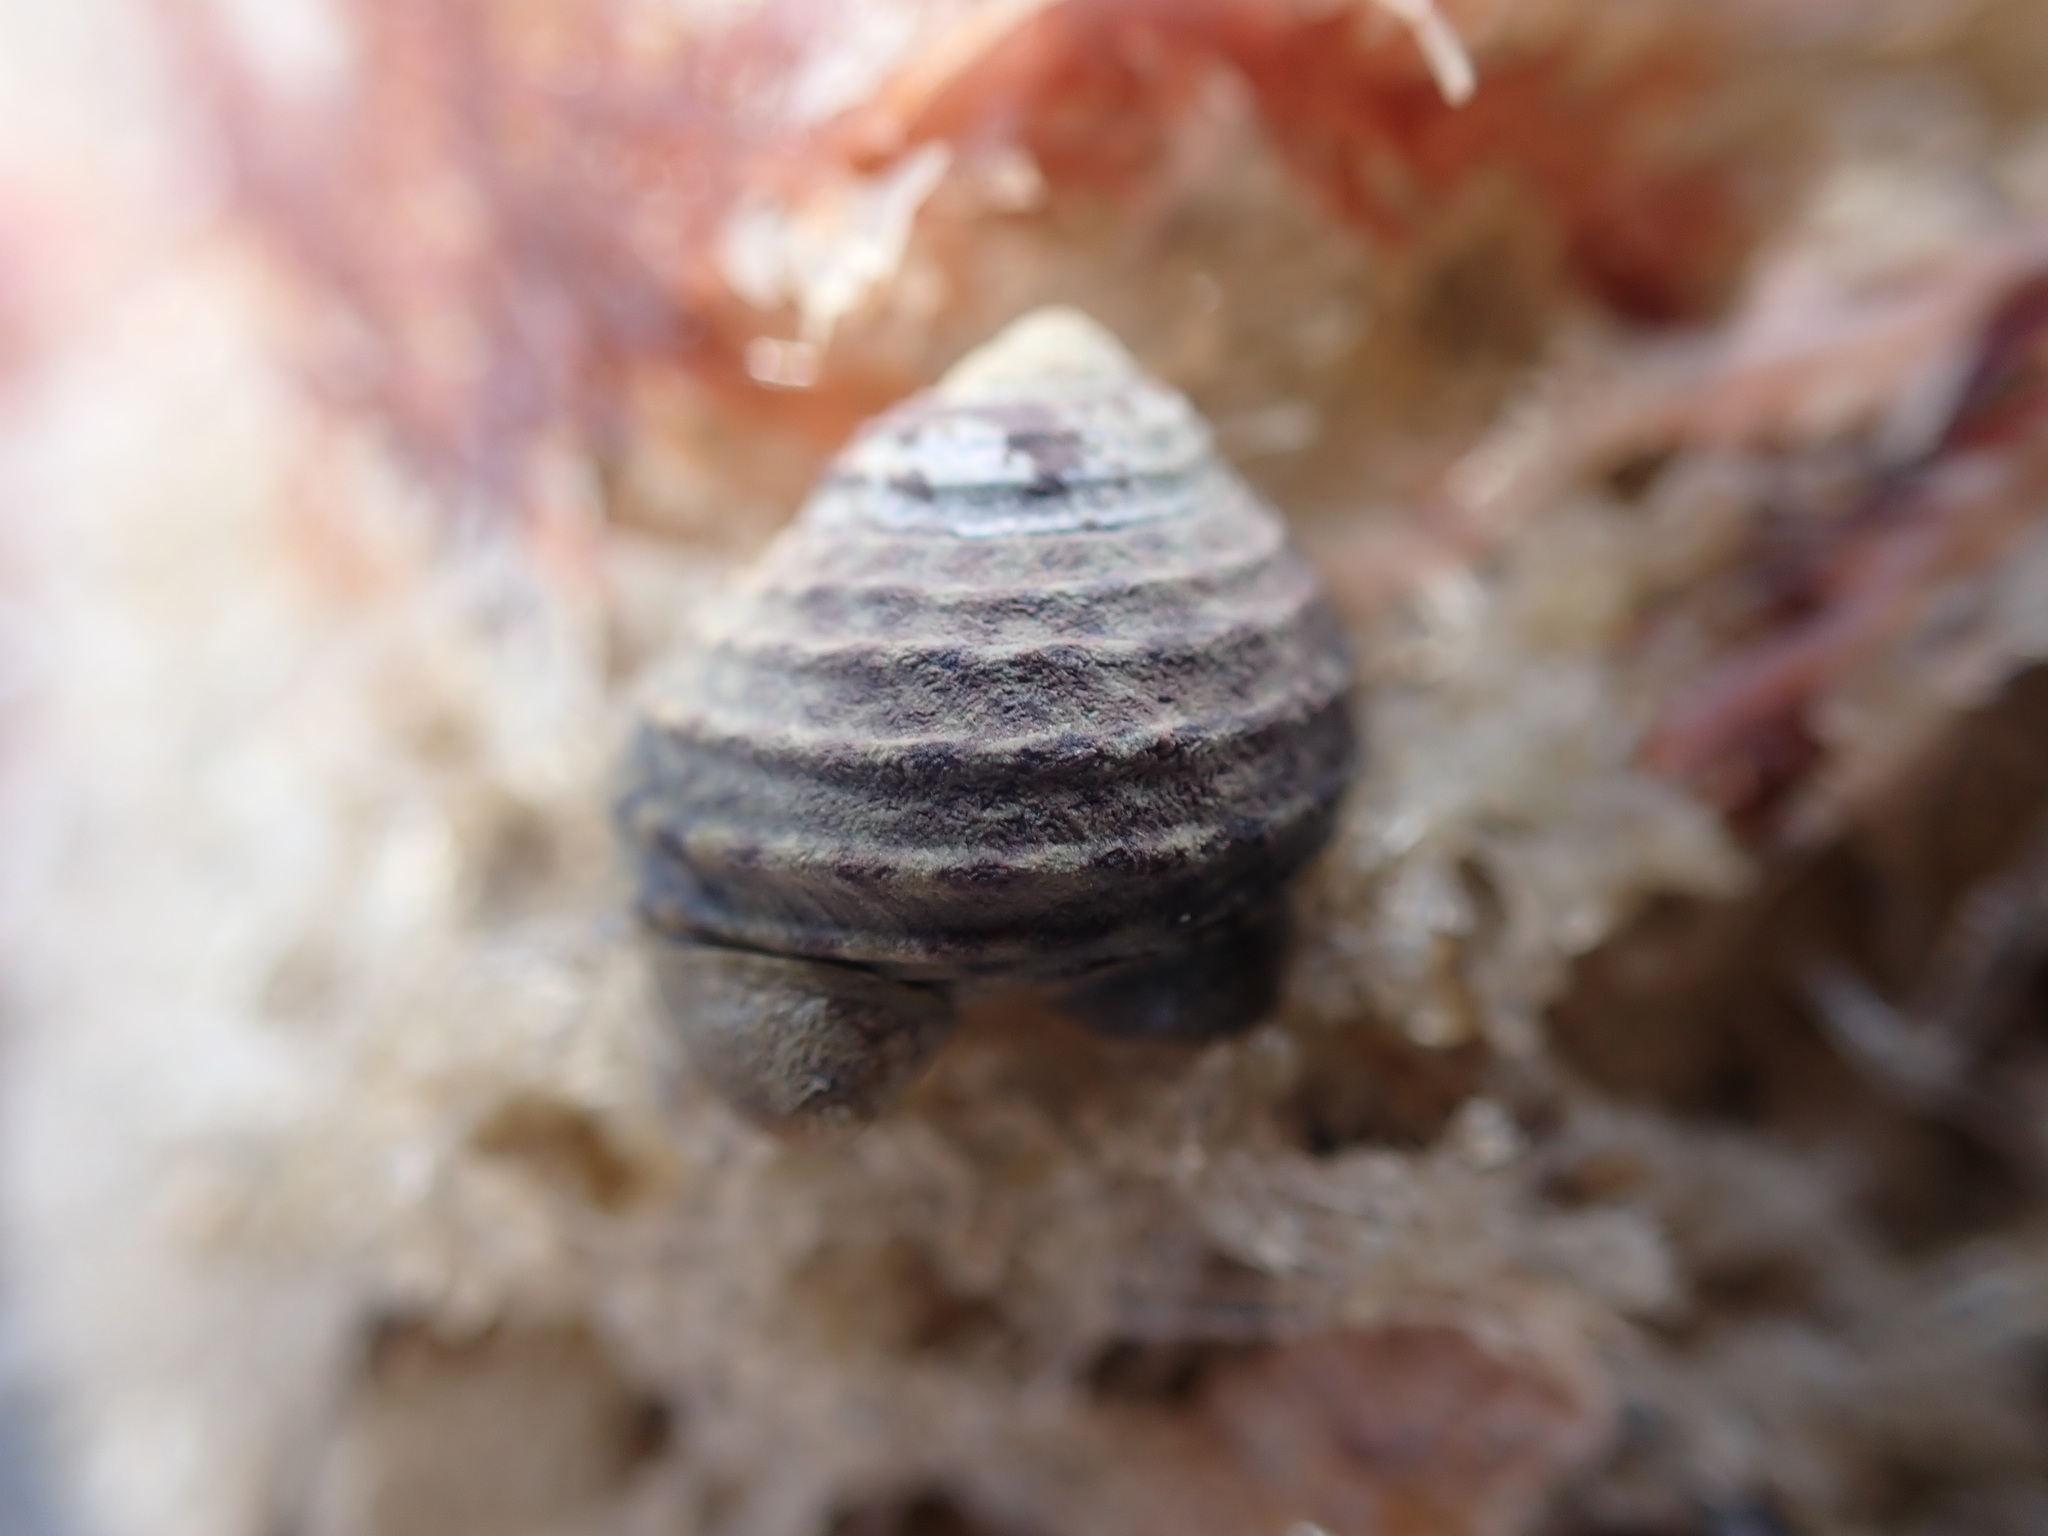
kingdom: Animalia
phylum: Mollusca
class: Gastropoda
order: Trochida
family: Trochidae
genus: Diloma
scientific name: Diloma subrostratum
